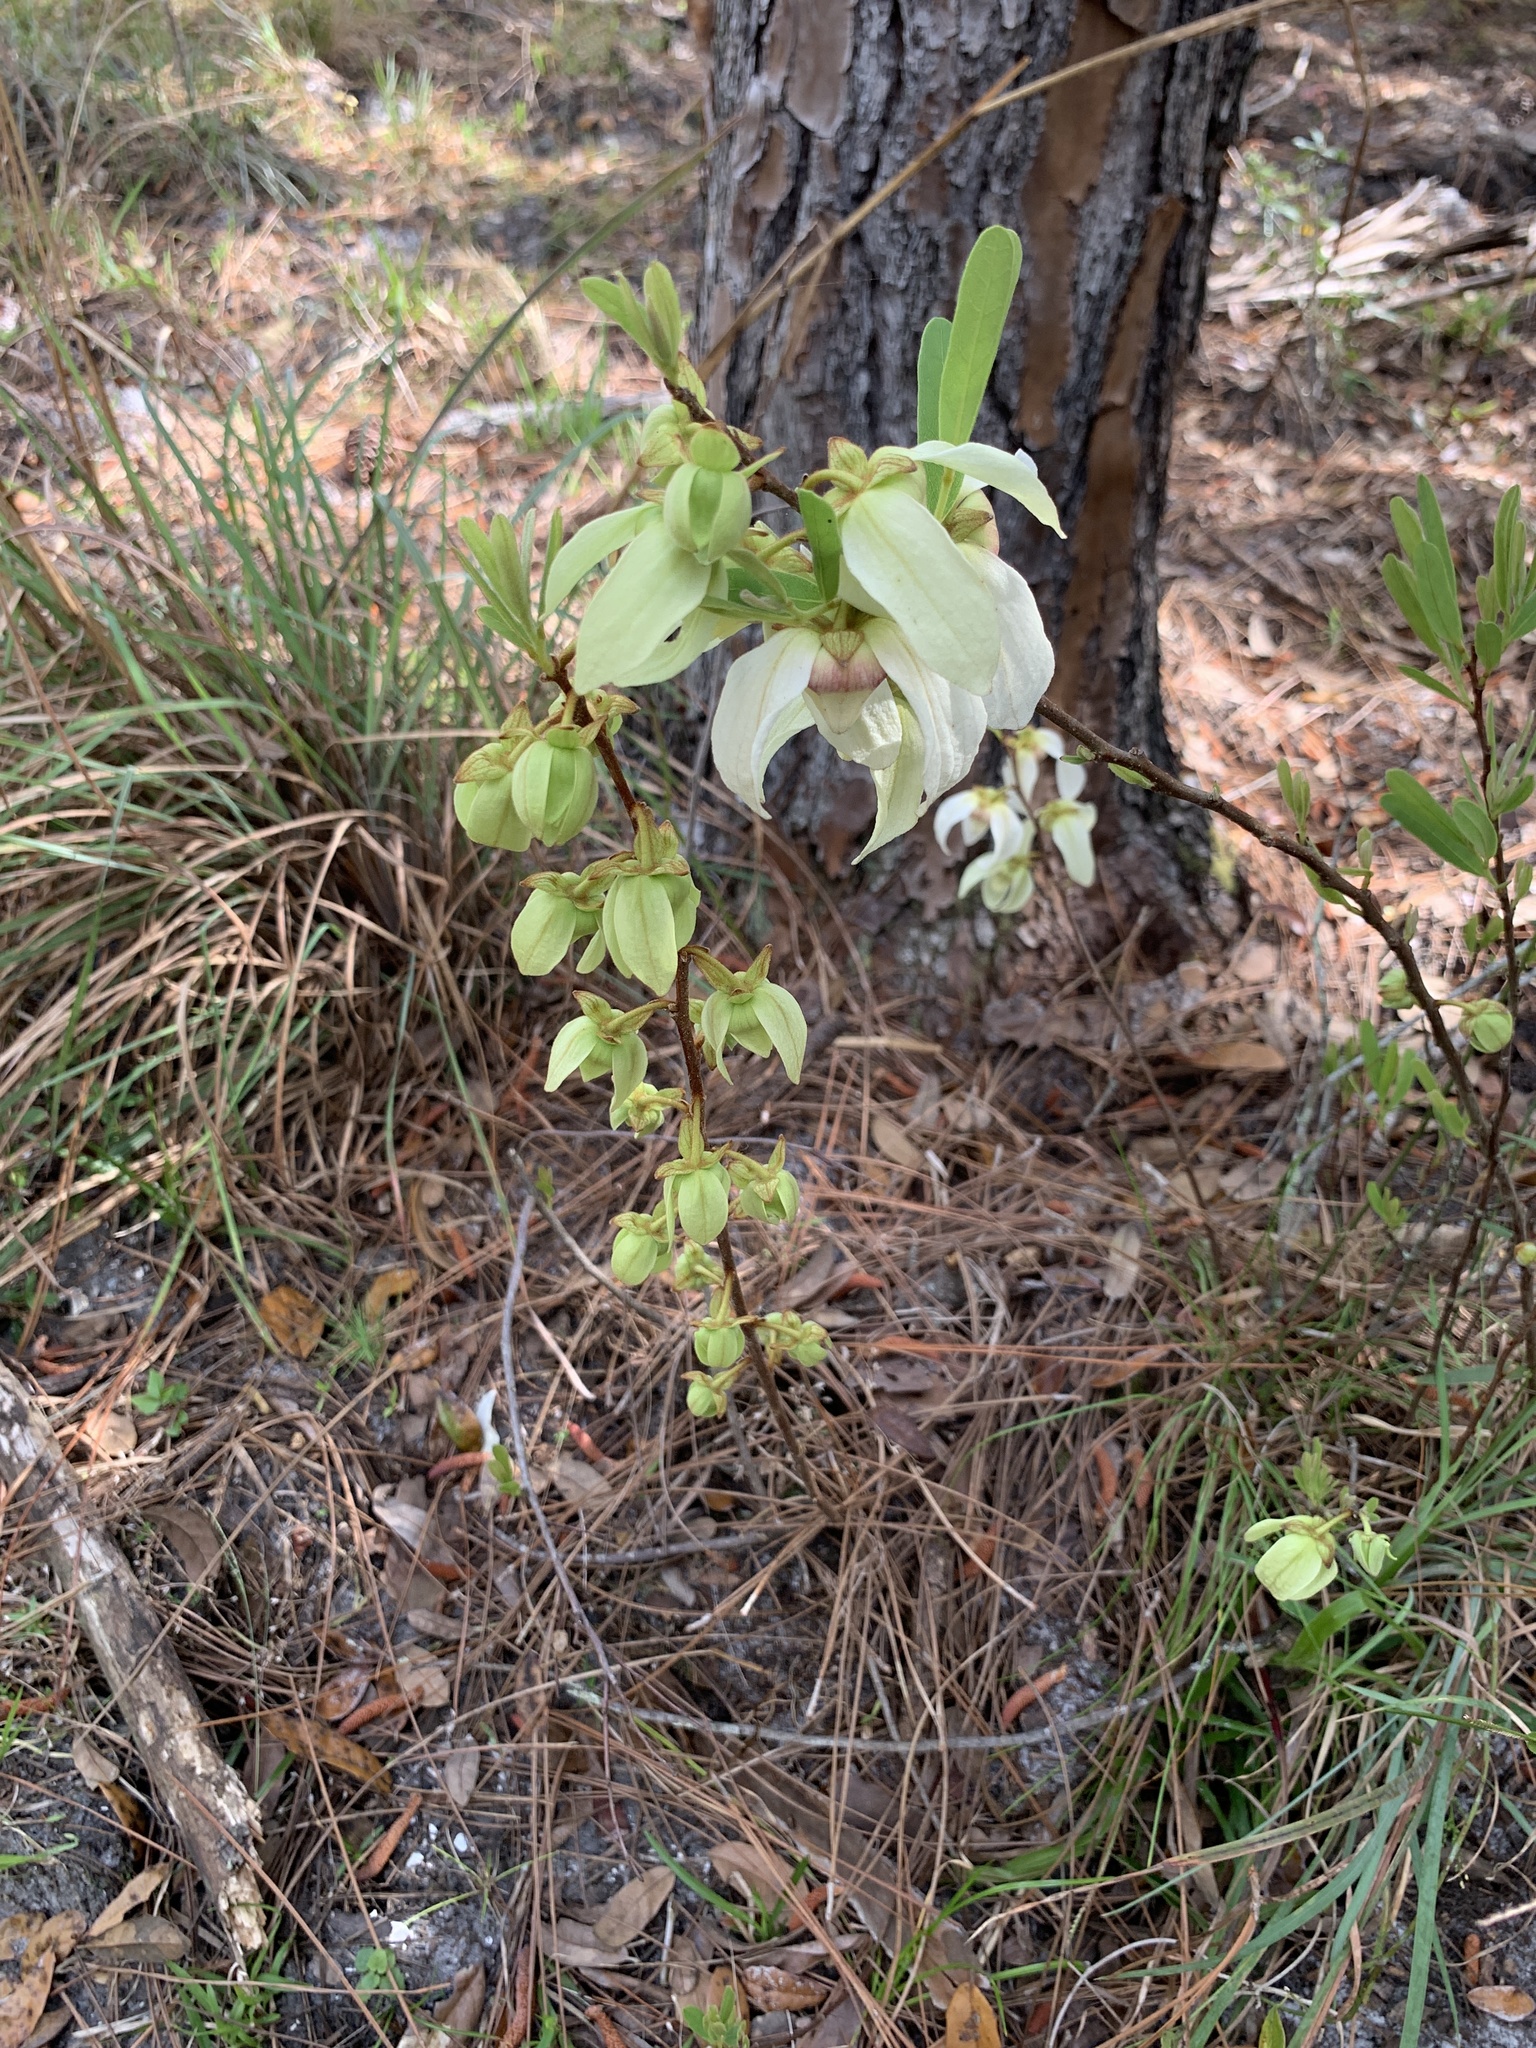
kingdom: Plantae
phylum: Tracheophyta
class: Magnoliopsida
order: Magnoliales
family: Annonaceae
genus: Asimina
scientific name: Asimina reticulata
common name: Flag pawpaw
